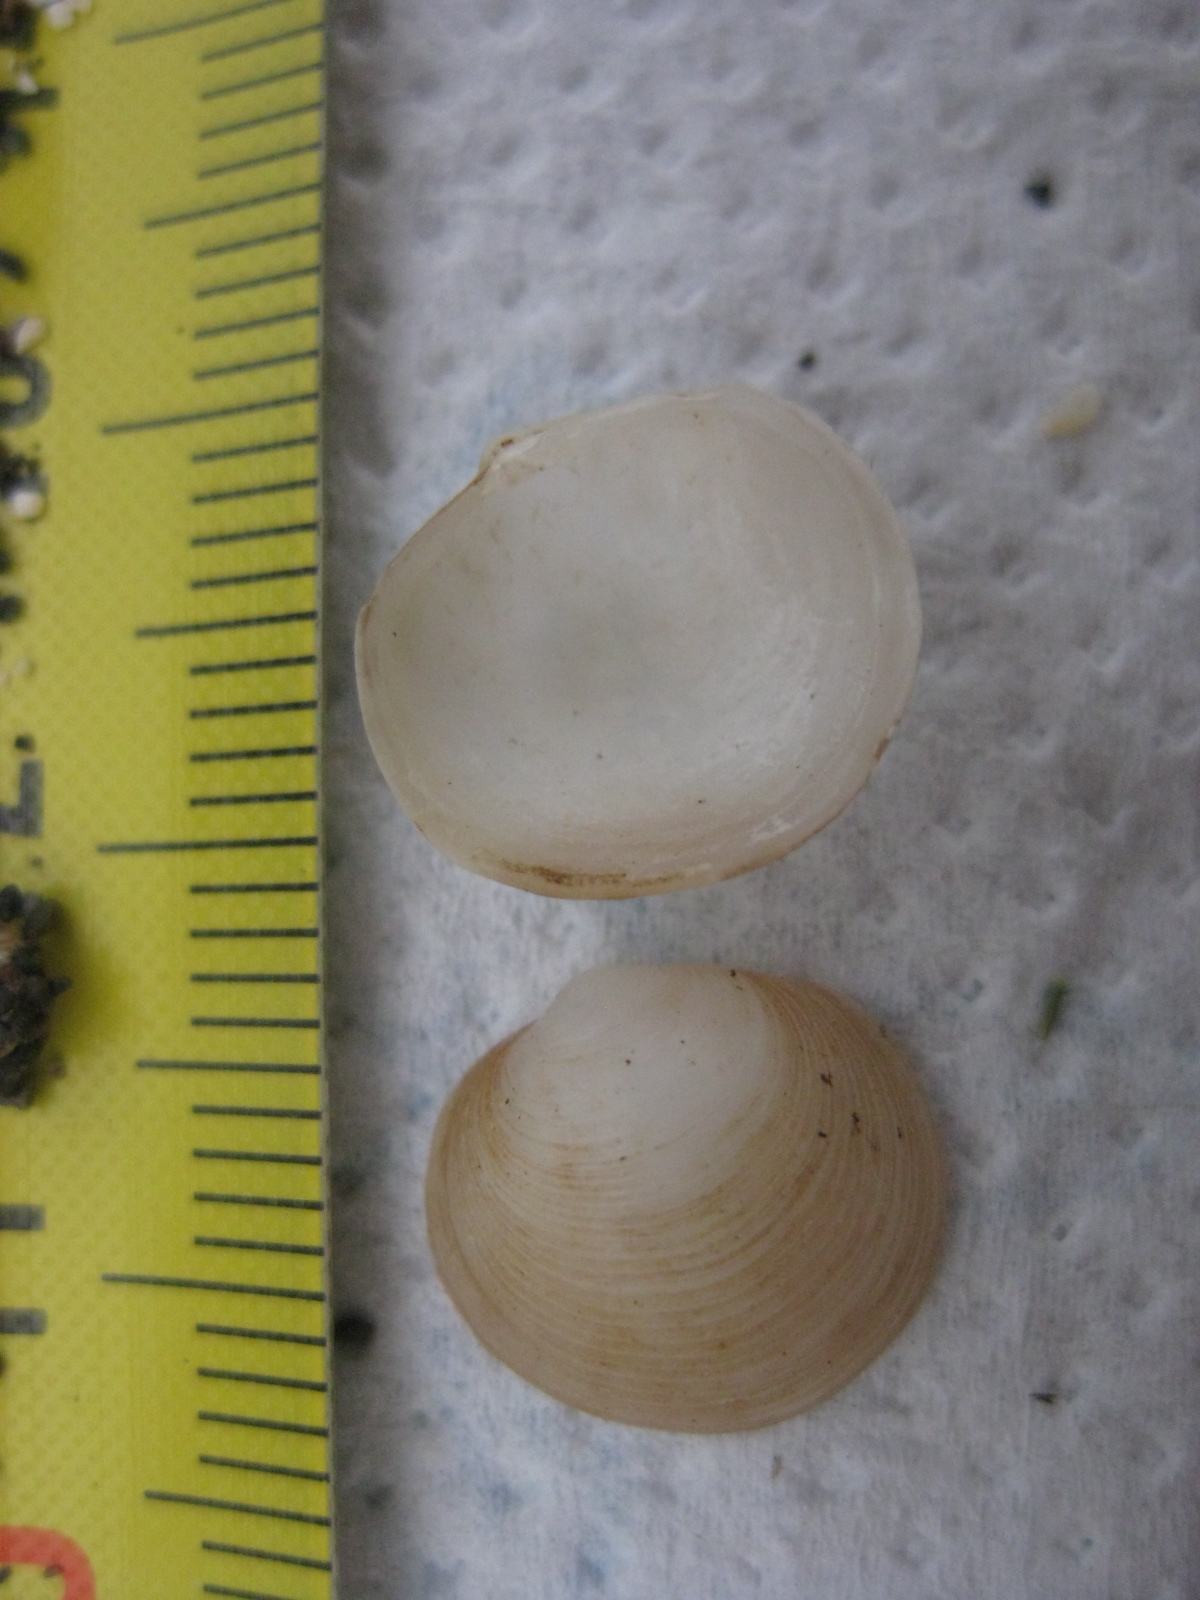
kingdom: Animalia
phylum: Mollusca
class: Bivalvia
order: Venerida
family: Ungulinidae
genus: Zemysina
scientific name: Zemysina striatula
